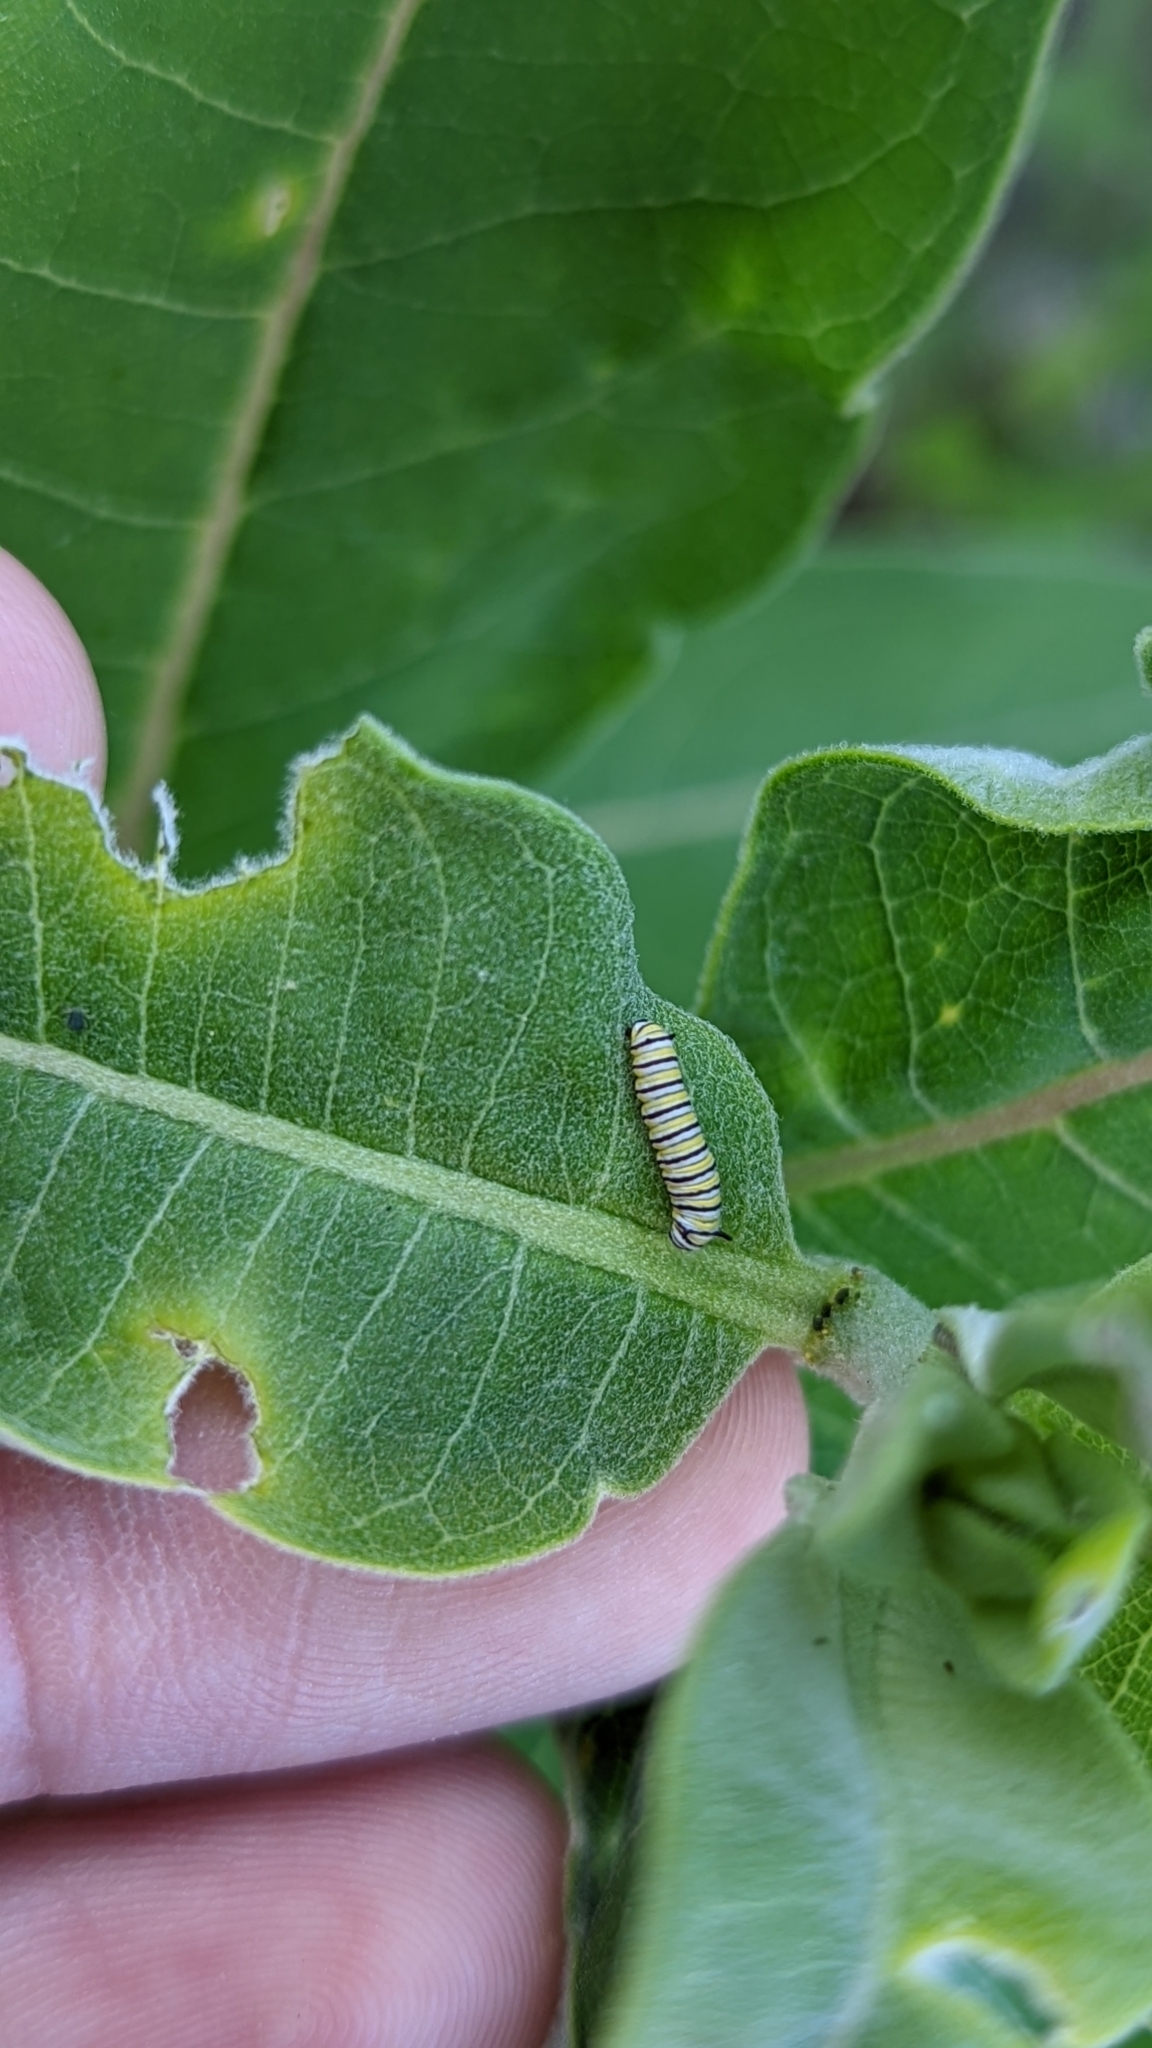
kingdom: Animalia
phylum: Arthropoda
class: Insecta
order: Lepidoptera
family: Nymphalidae
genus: Danaus
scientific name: Danaus plexippus
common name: Monarch
